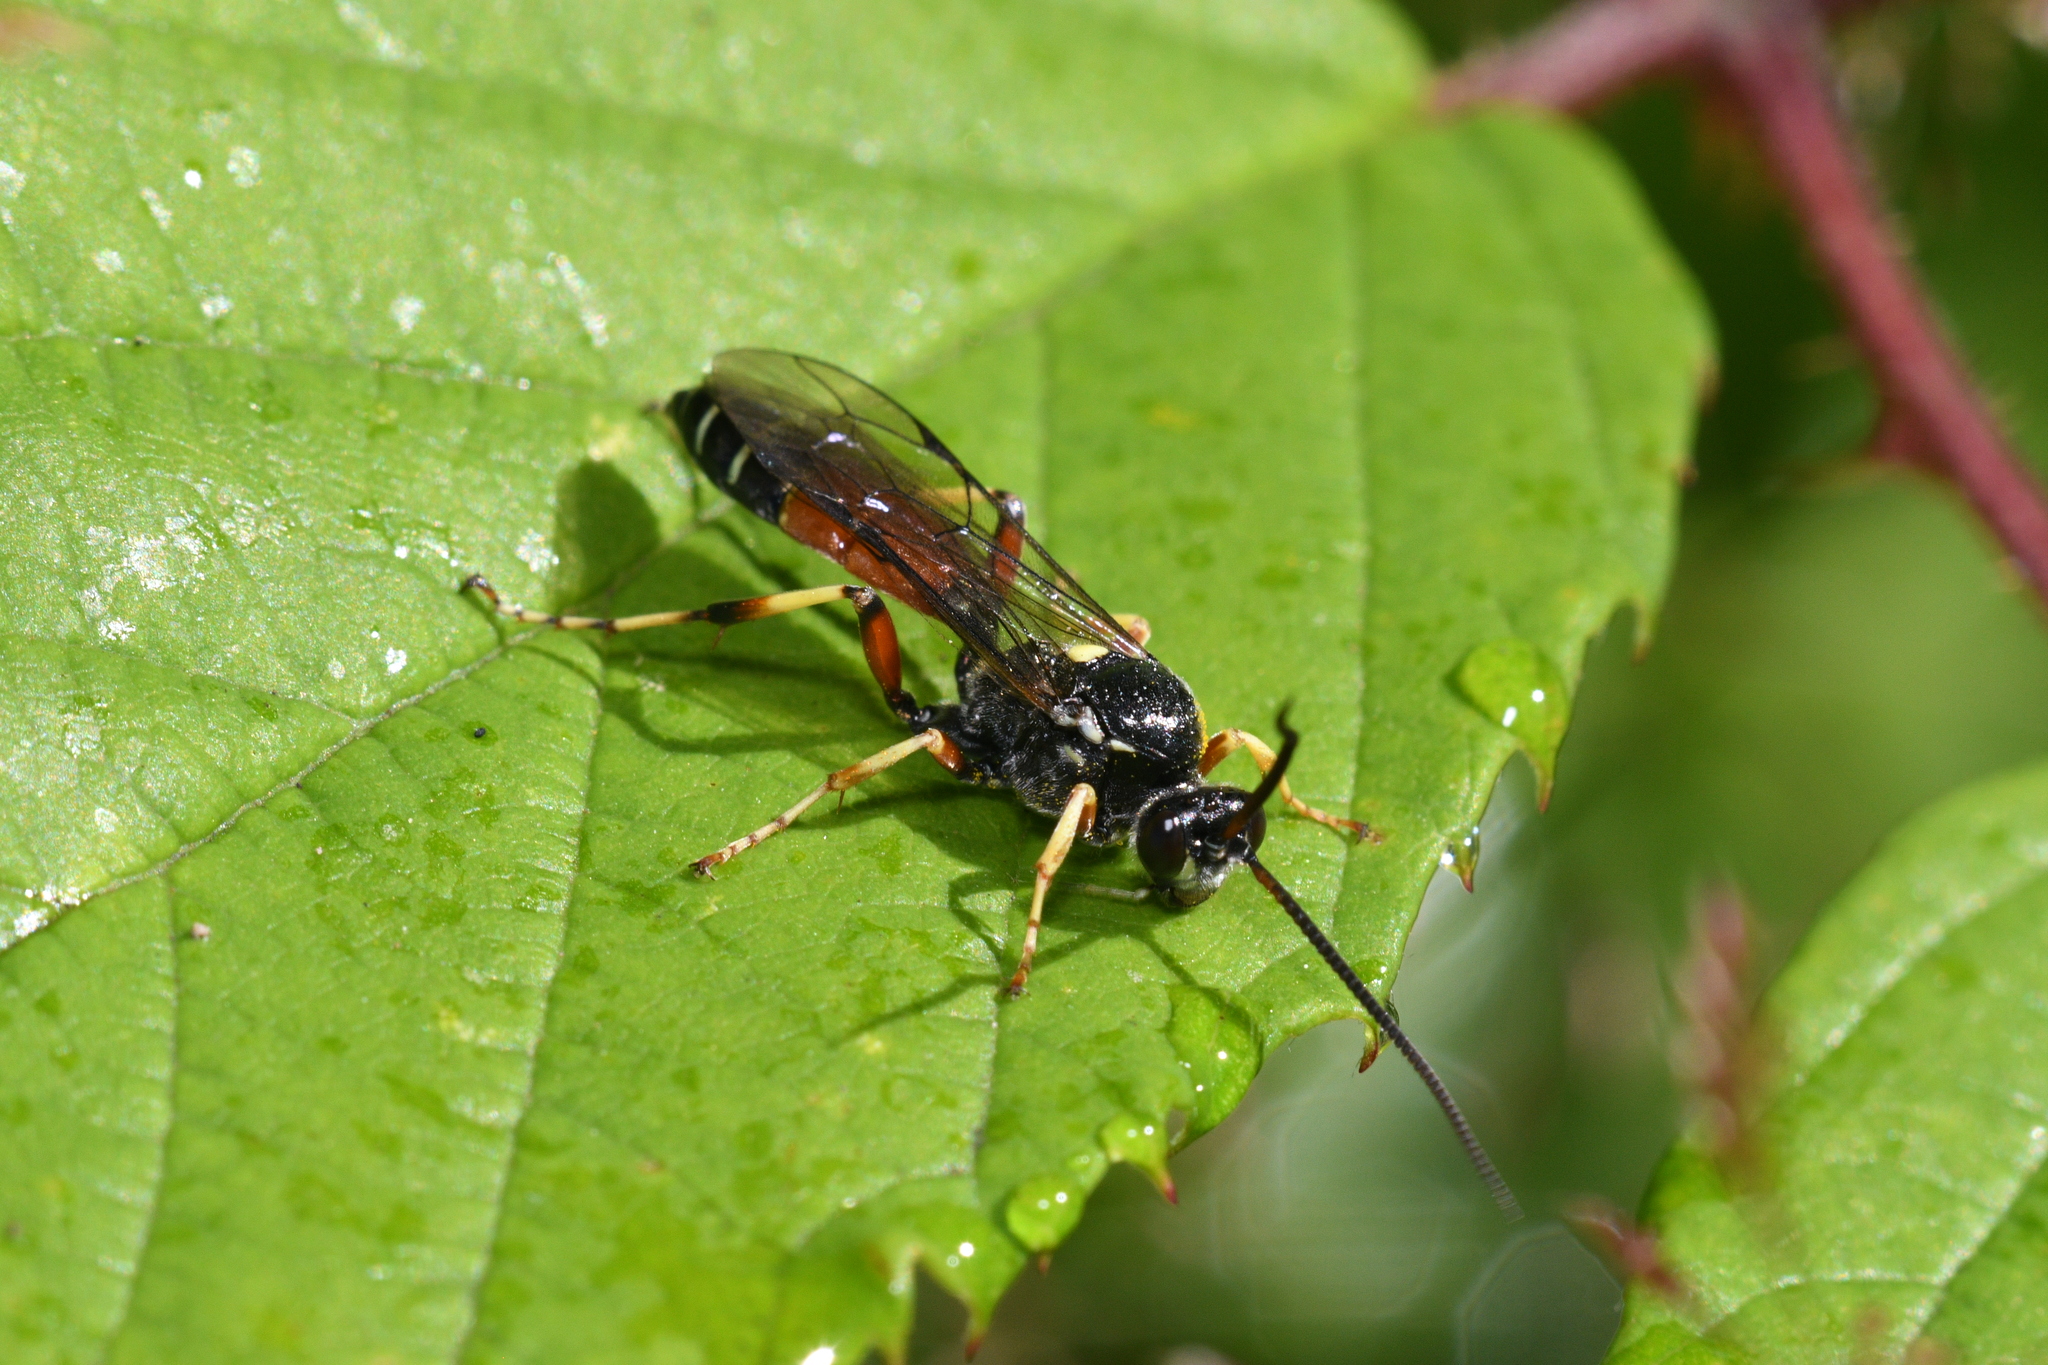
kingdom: Animalia
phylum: Arthropoda
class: Insecta
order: Hymenoptera
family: Ichneumonidae
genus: Ctenichneumon
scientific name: Ctenichneumon panzeri
